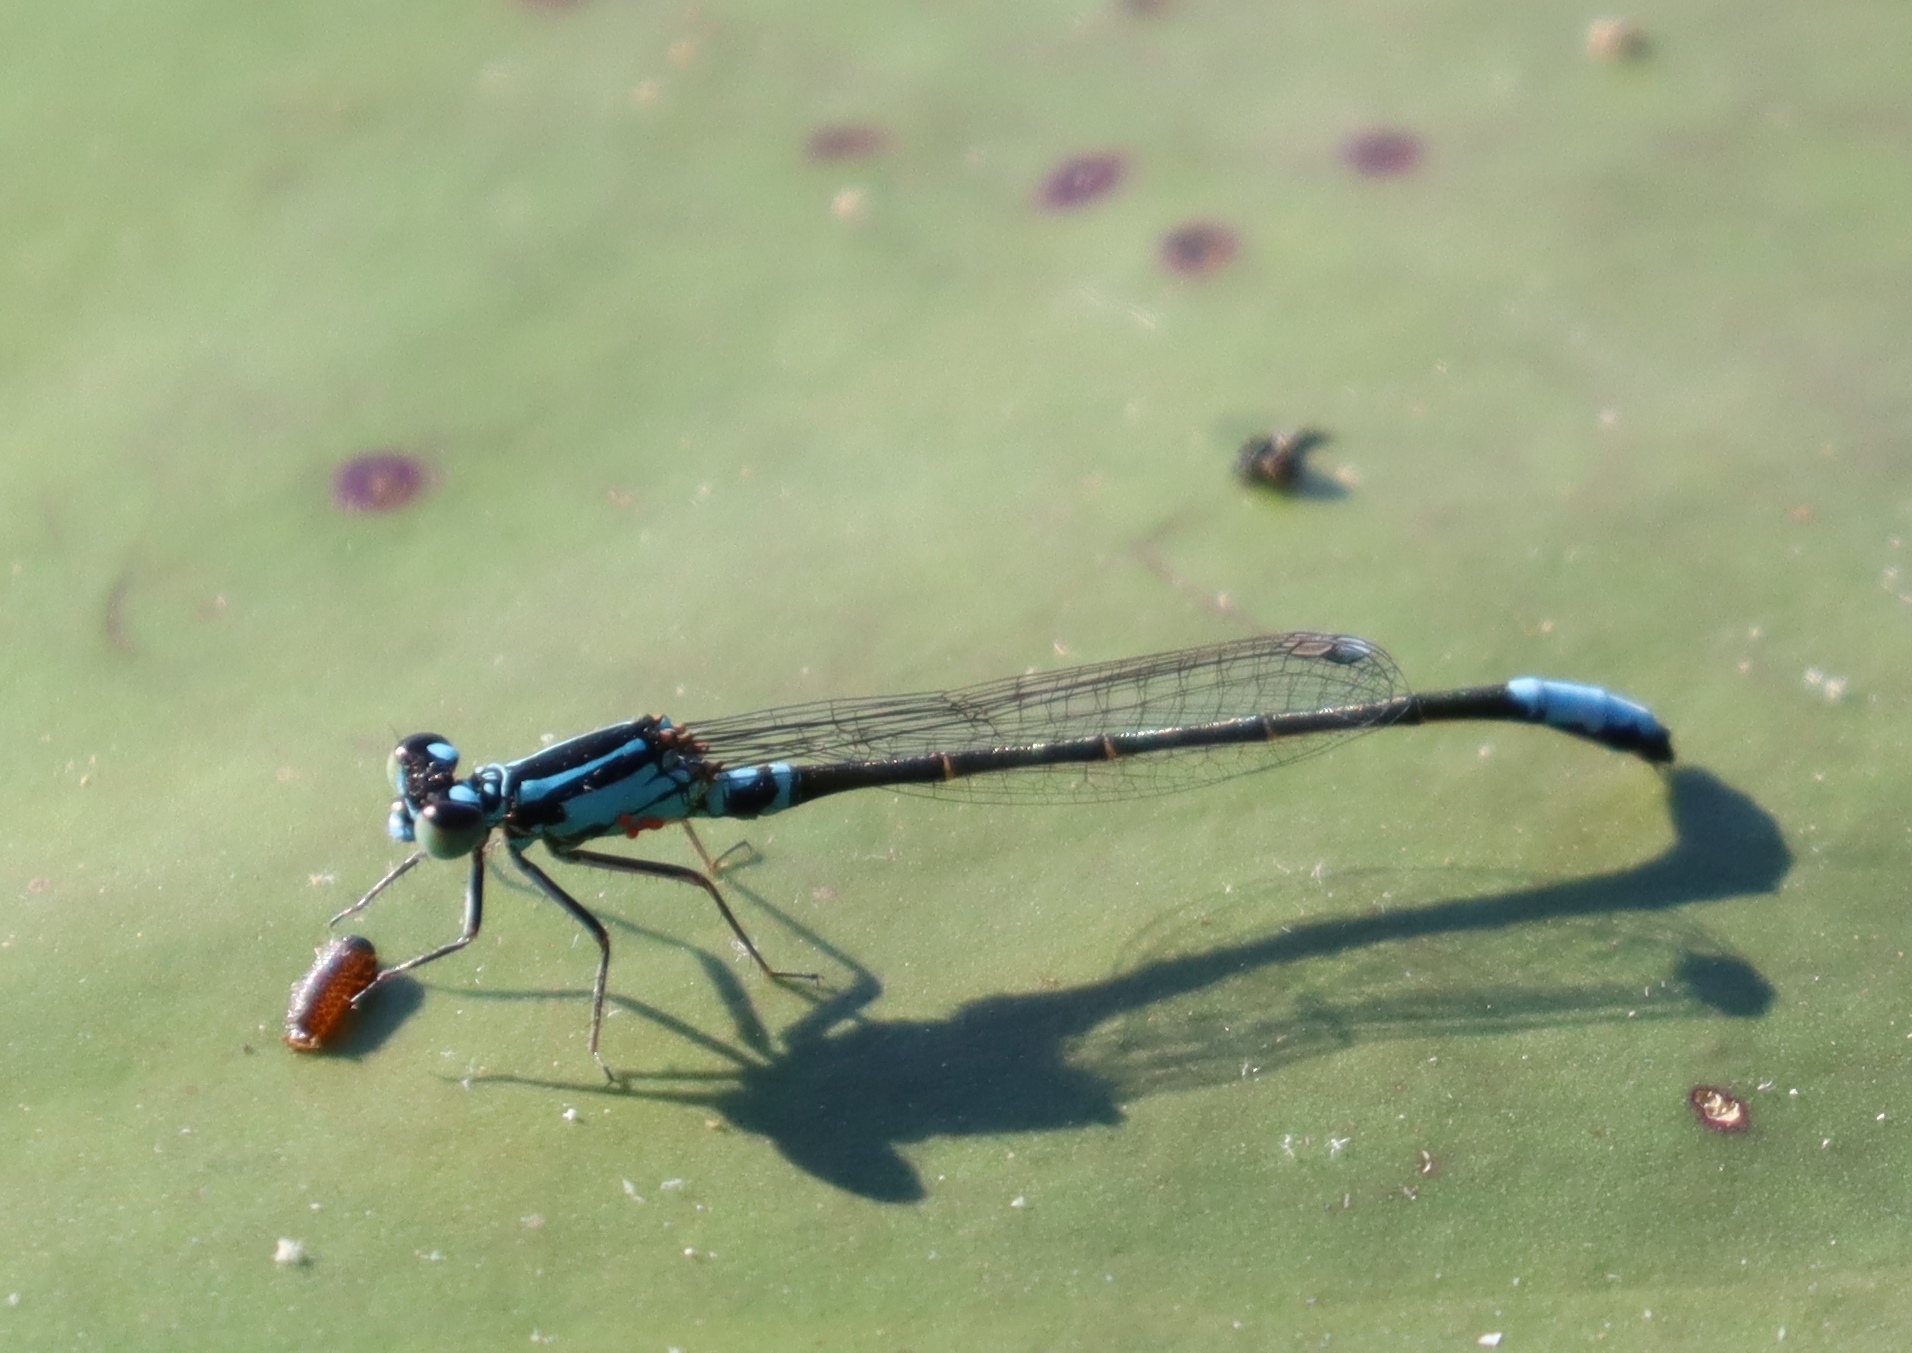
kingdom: Animalia
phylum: Arthropoda
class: Insecta
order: Odonata
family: Coenagrionidae
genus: Ischnura
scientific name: Ischnura kellicotti
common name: Lilypad forktail
